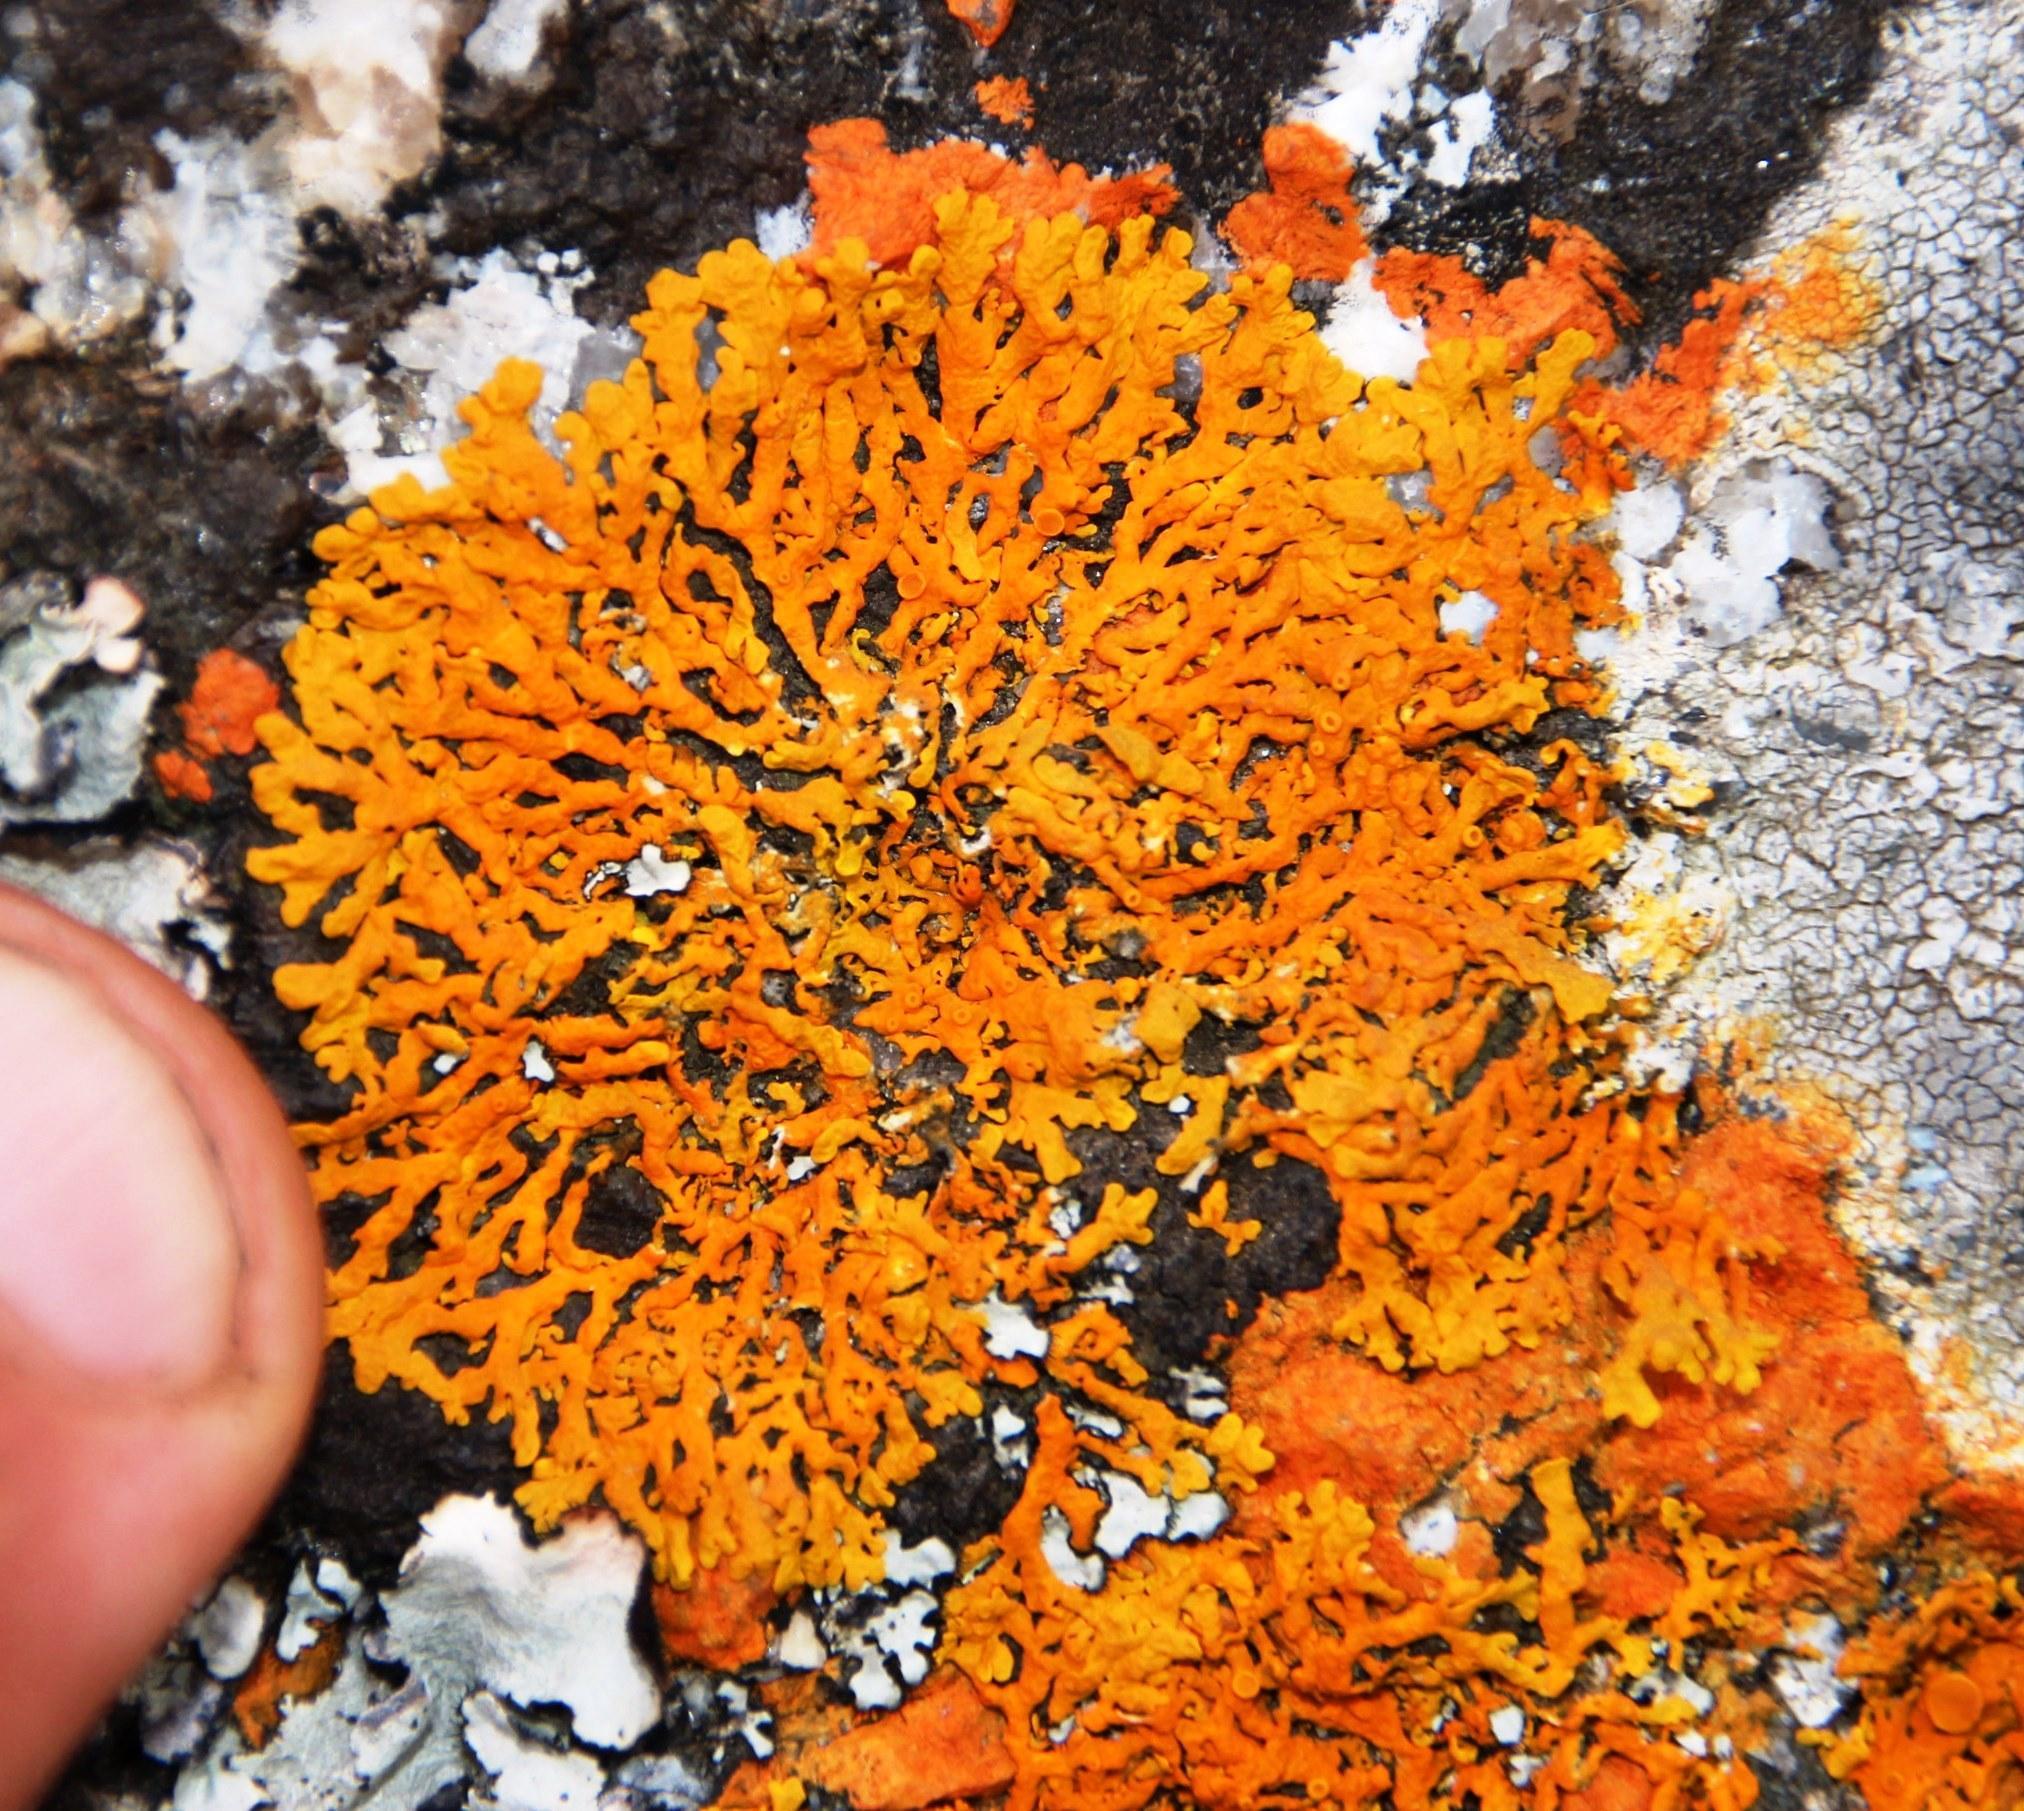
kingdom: Fungi
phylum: Ascomycota
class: Lecanoromycetes
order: Teloschistales
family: Teloschistaceae
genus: Xanthoria
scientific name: Xanthoria elegans
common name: Elegant sunburst lichen
